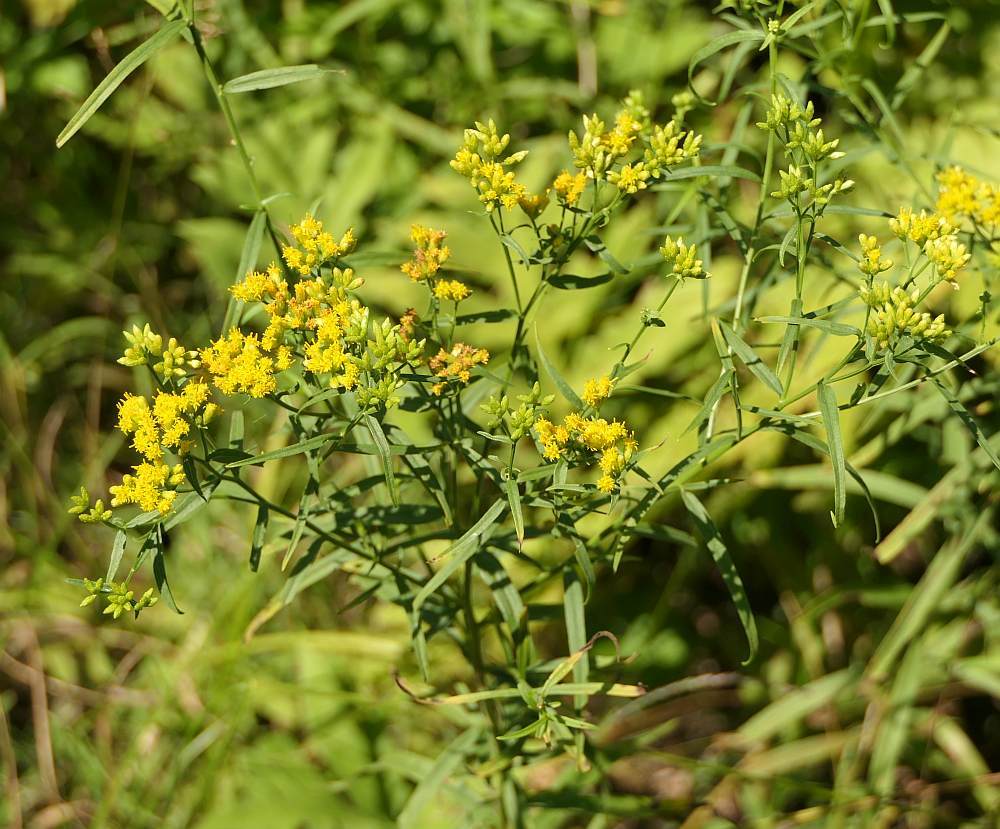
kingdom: Plantae
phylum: Tracheophyta
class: Magnoliopsida
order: Asterales
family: Asteraceae
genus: Euthamia
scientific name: Euthamia graminifolia
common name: Common goldentop
